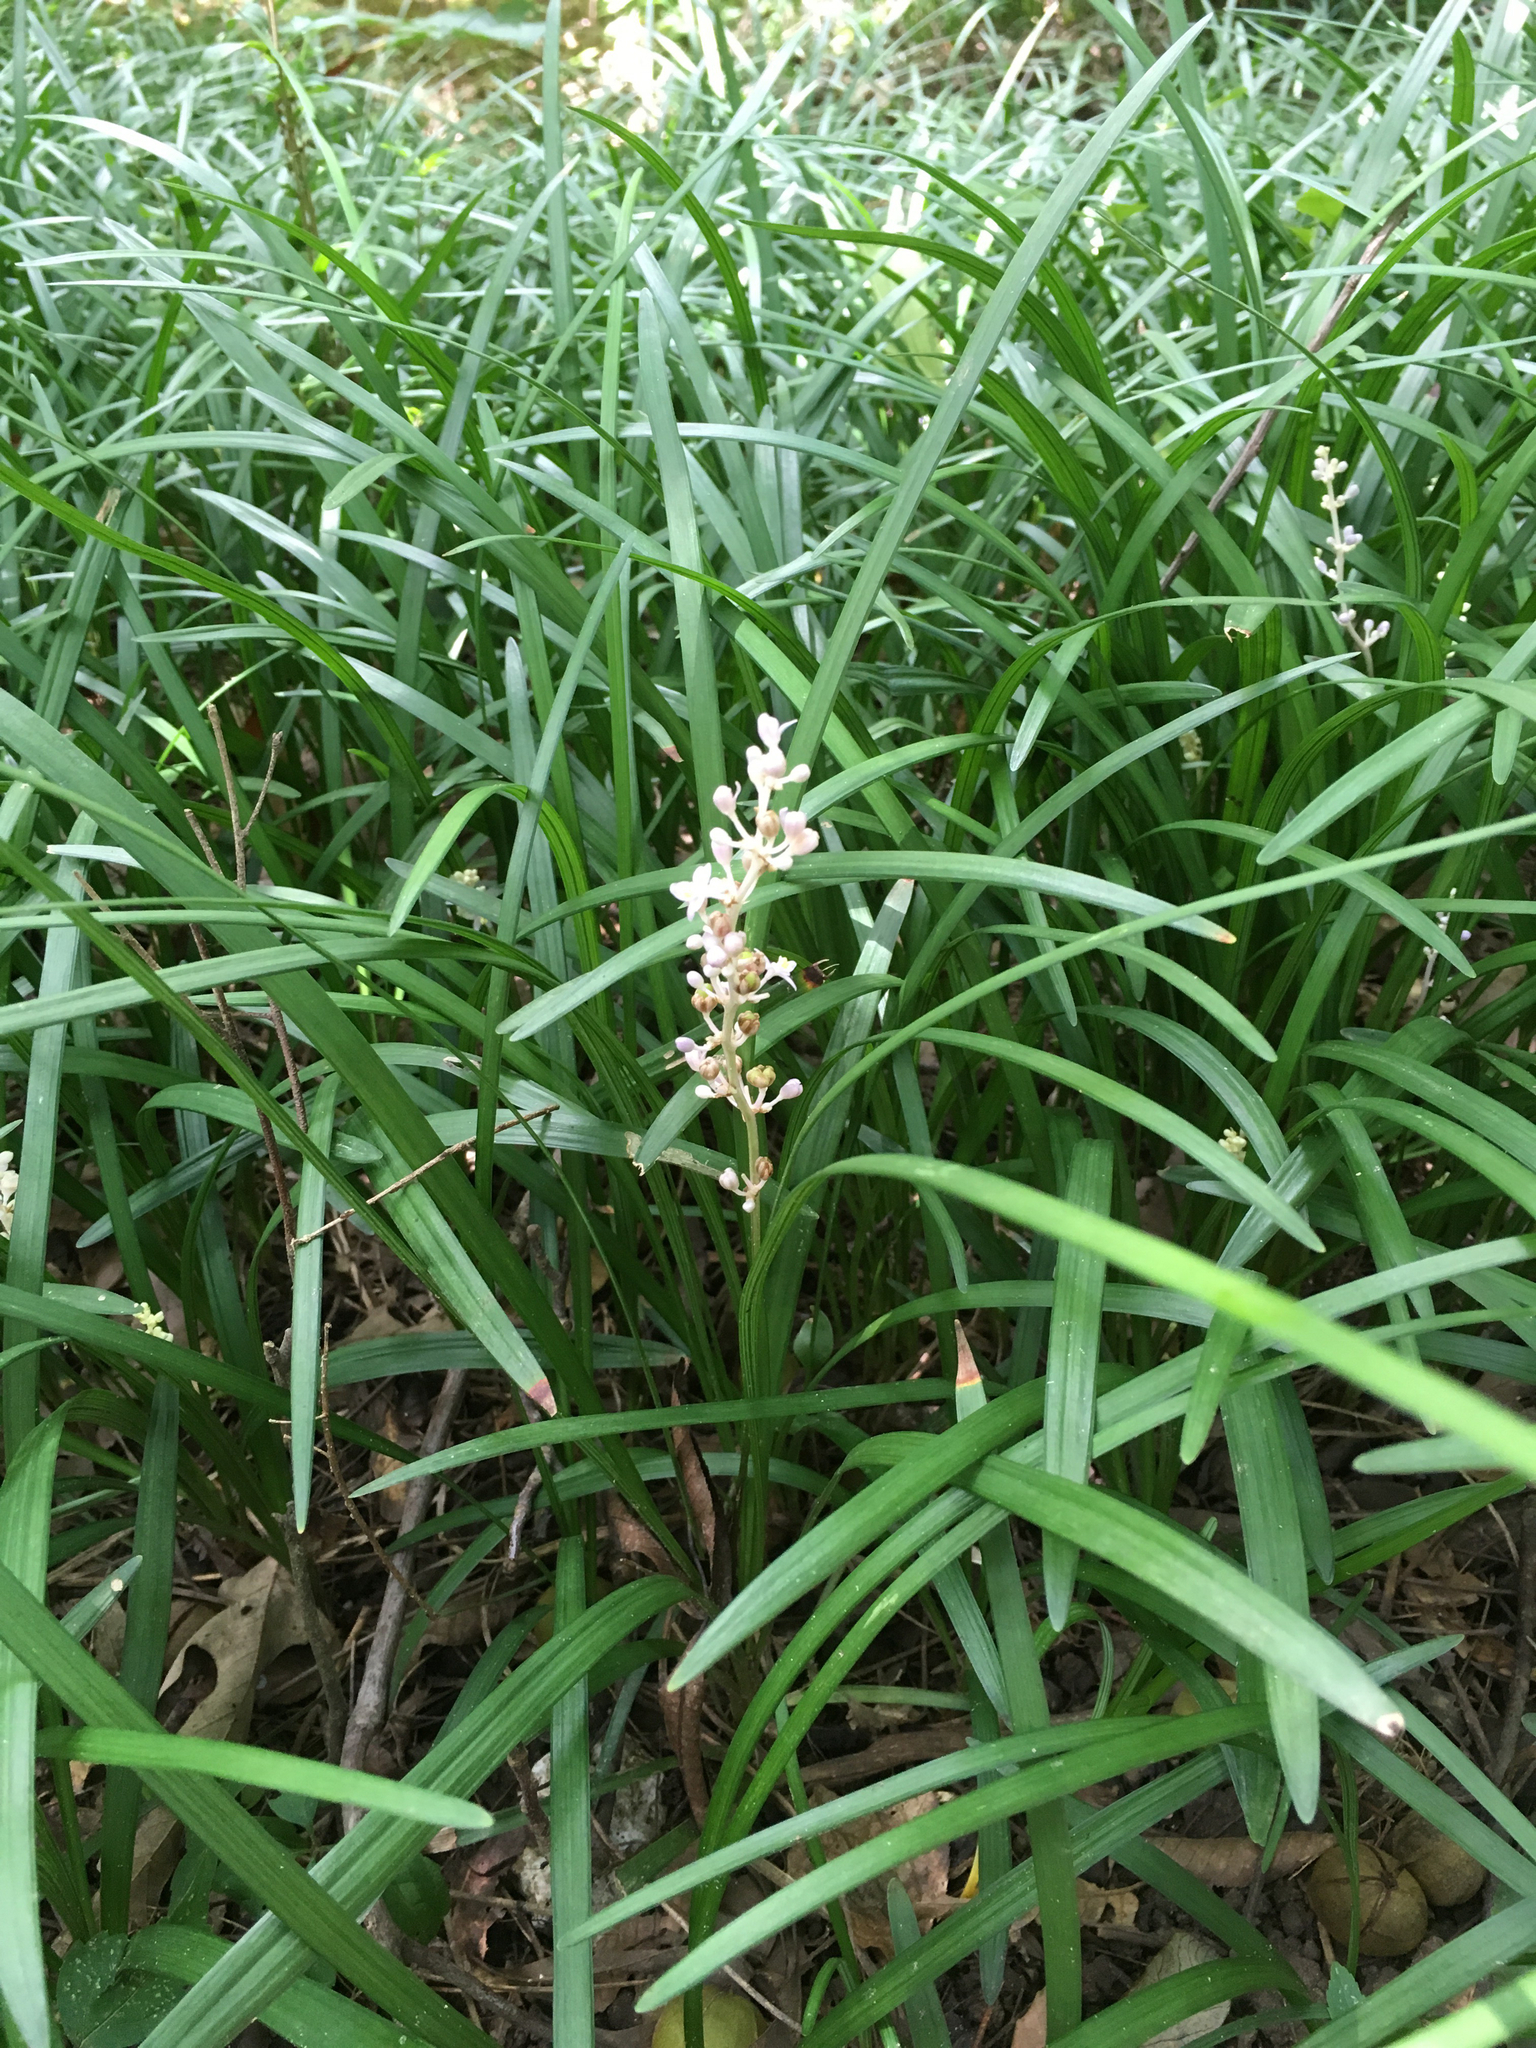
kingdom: Plantae
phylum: Tracheophyta
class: Liliopsida
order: Asparagales
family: Asparagaceae
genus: Liriope
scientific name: Liriope spicata
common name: Creeping liriope
